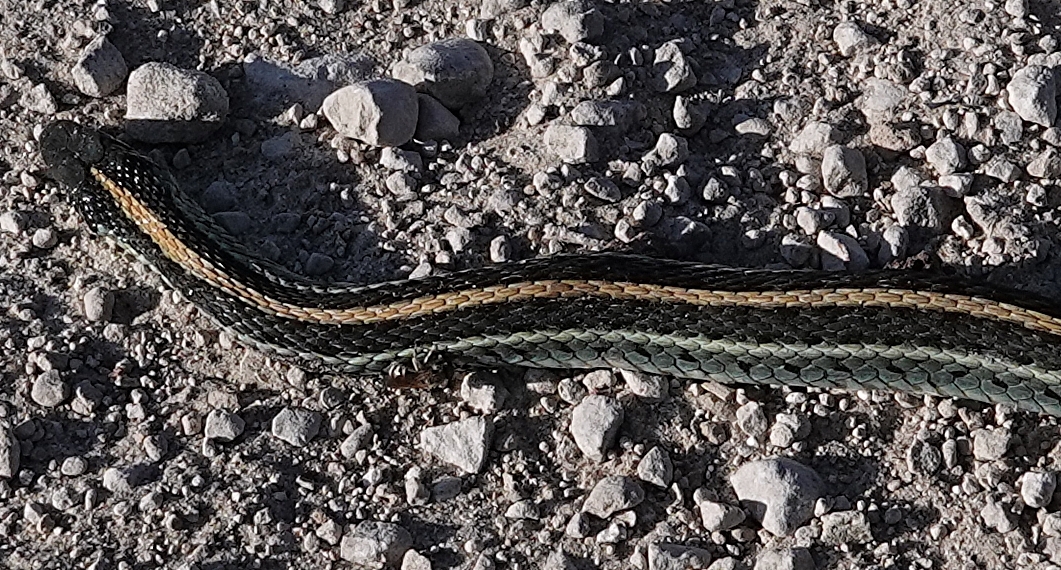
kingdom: Animalia
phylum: Chordata
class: Squamata
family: Colubridae
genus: Thamnophis
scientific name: Thamnophis radix
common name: Plains garter snake
